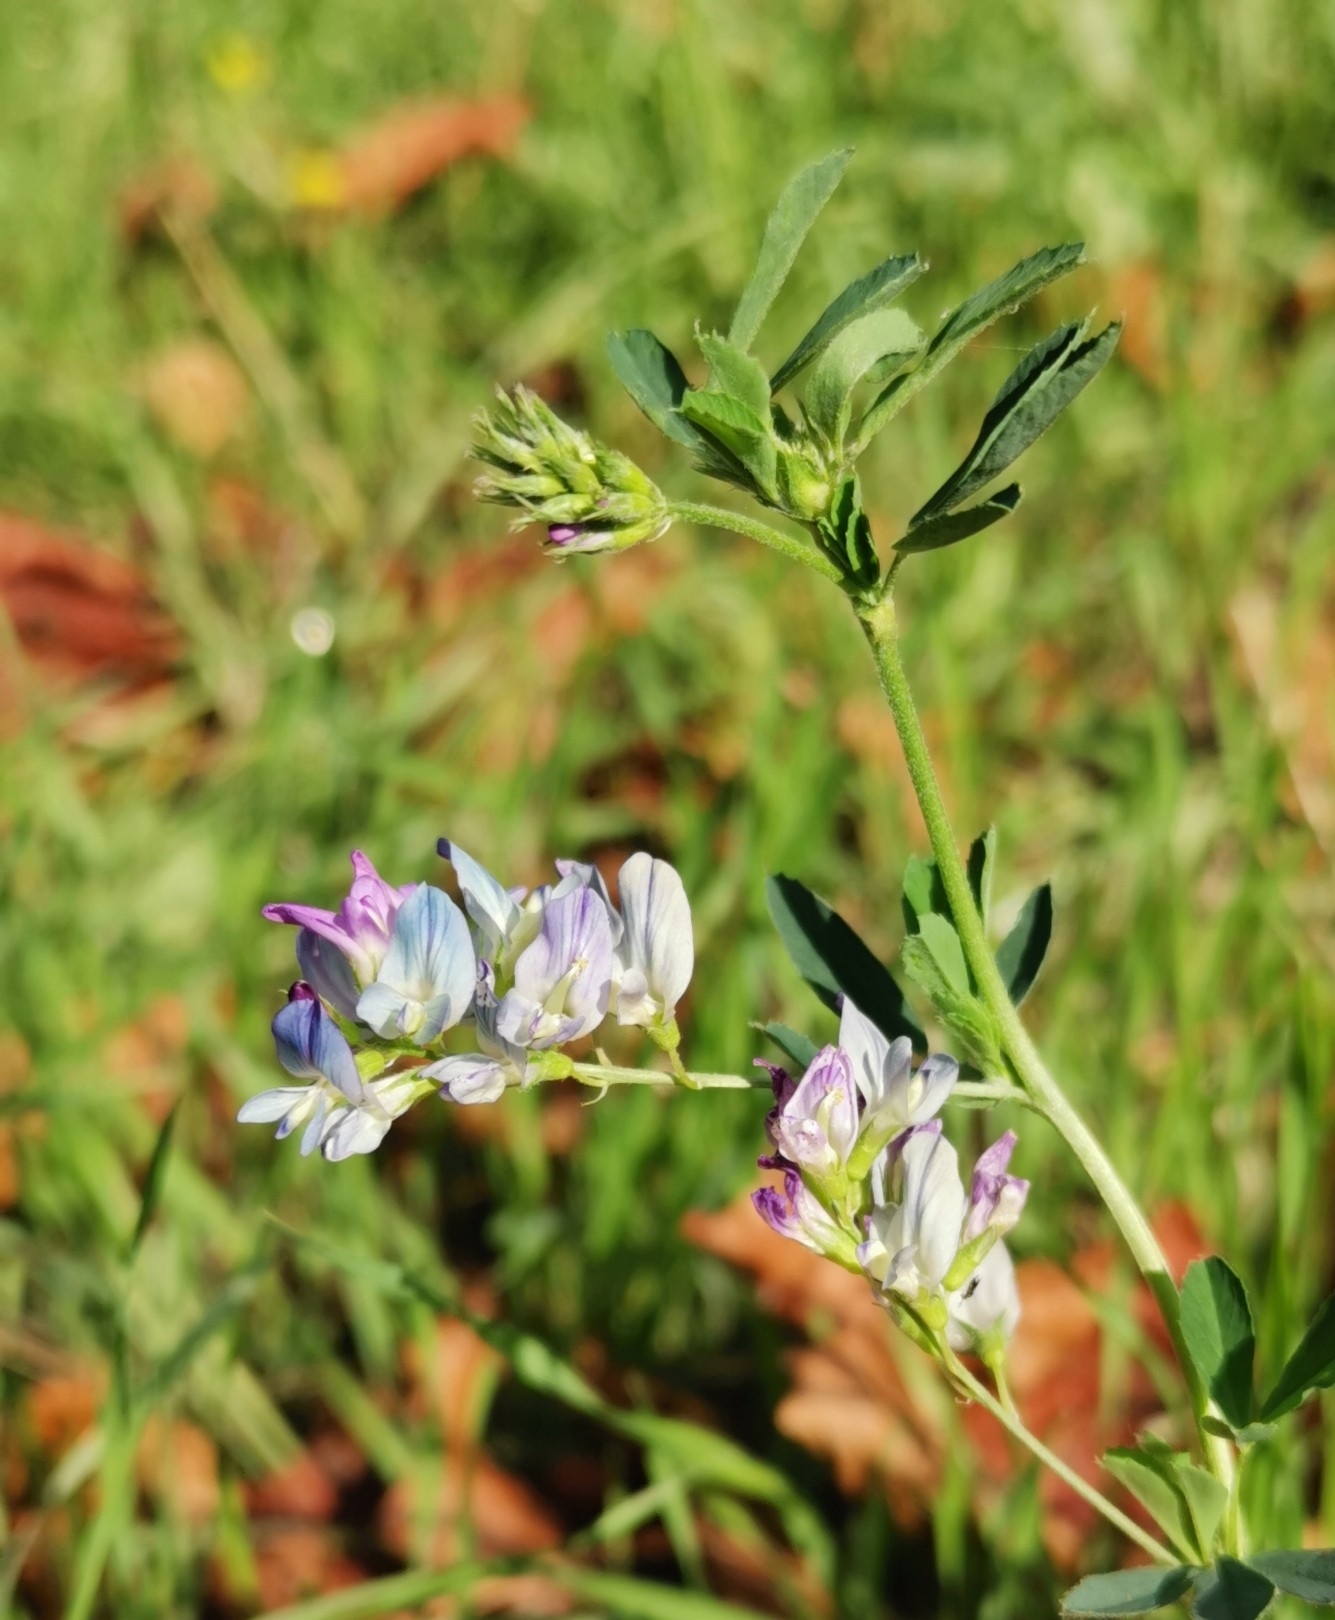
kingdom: Plantae
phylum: Tracheophyta
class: Magnoliopsida
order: Fabales
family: Fabaceae
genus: Medicago
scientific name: Medicago varia
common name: Sand lucerne
